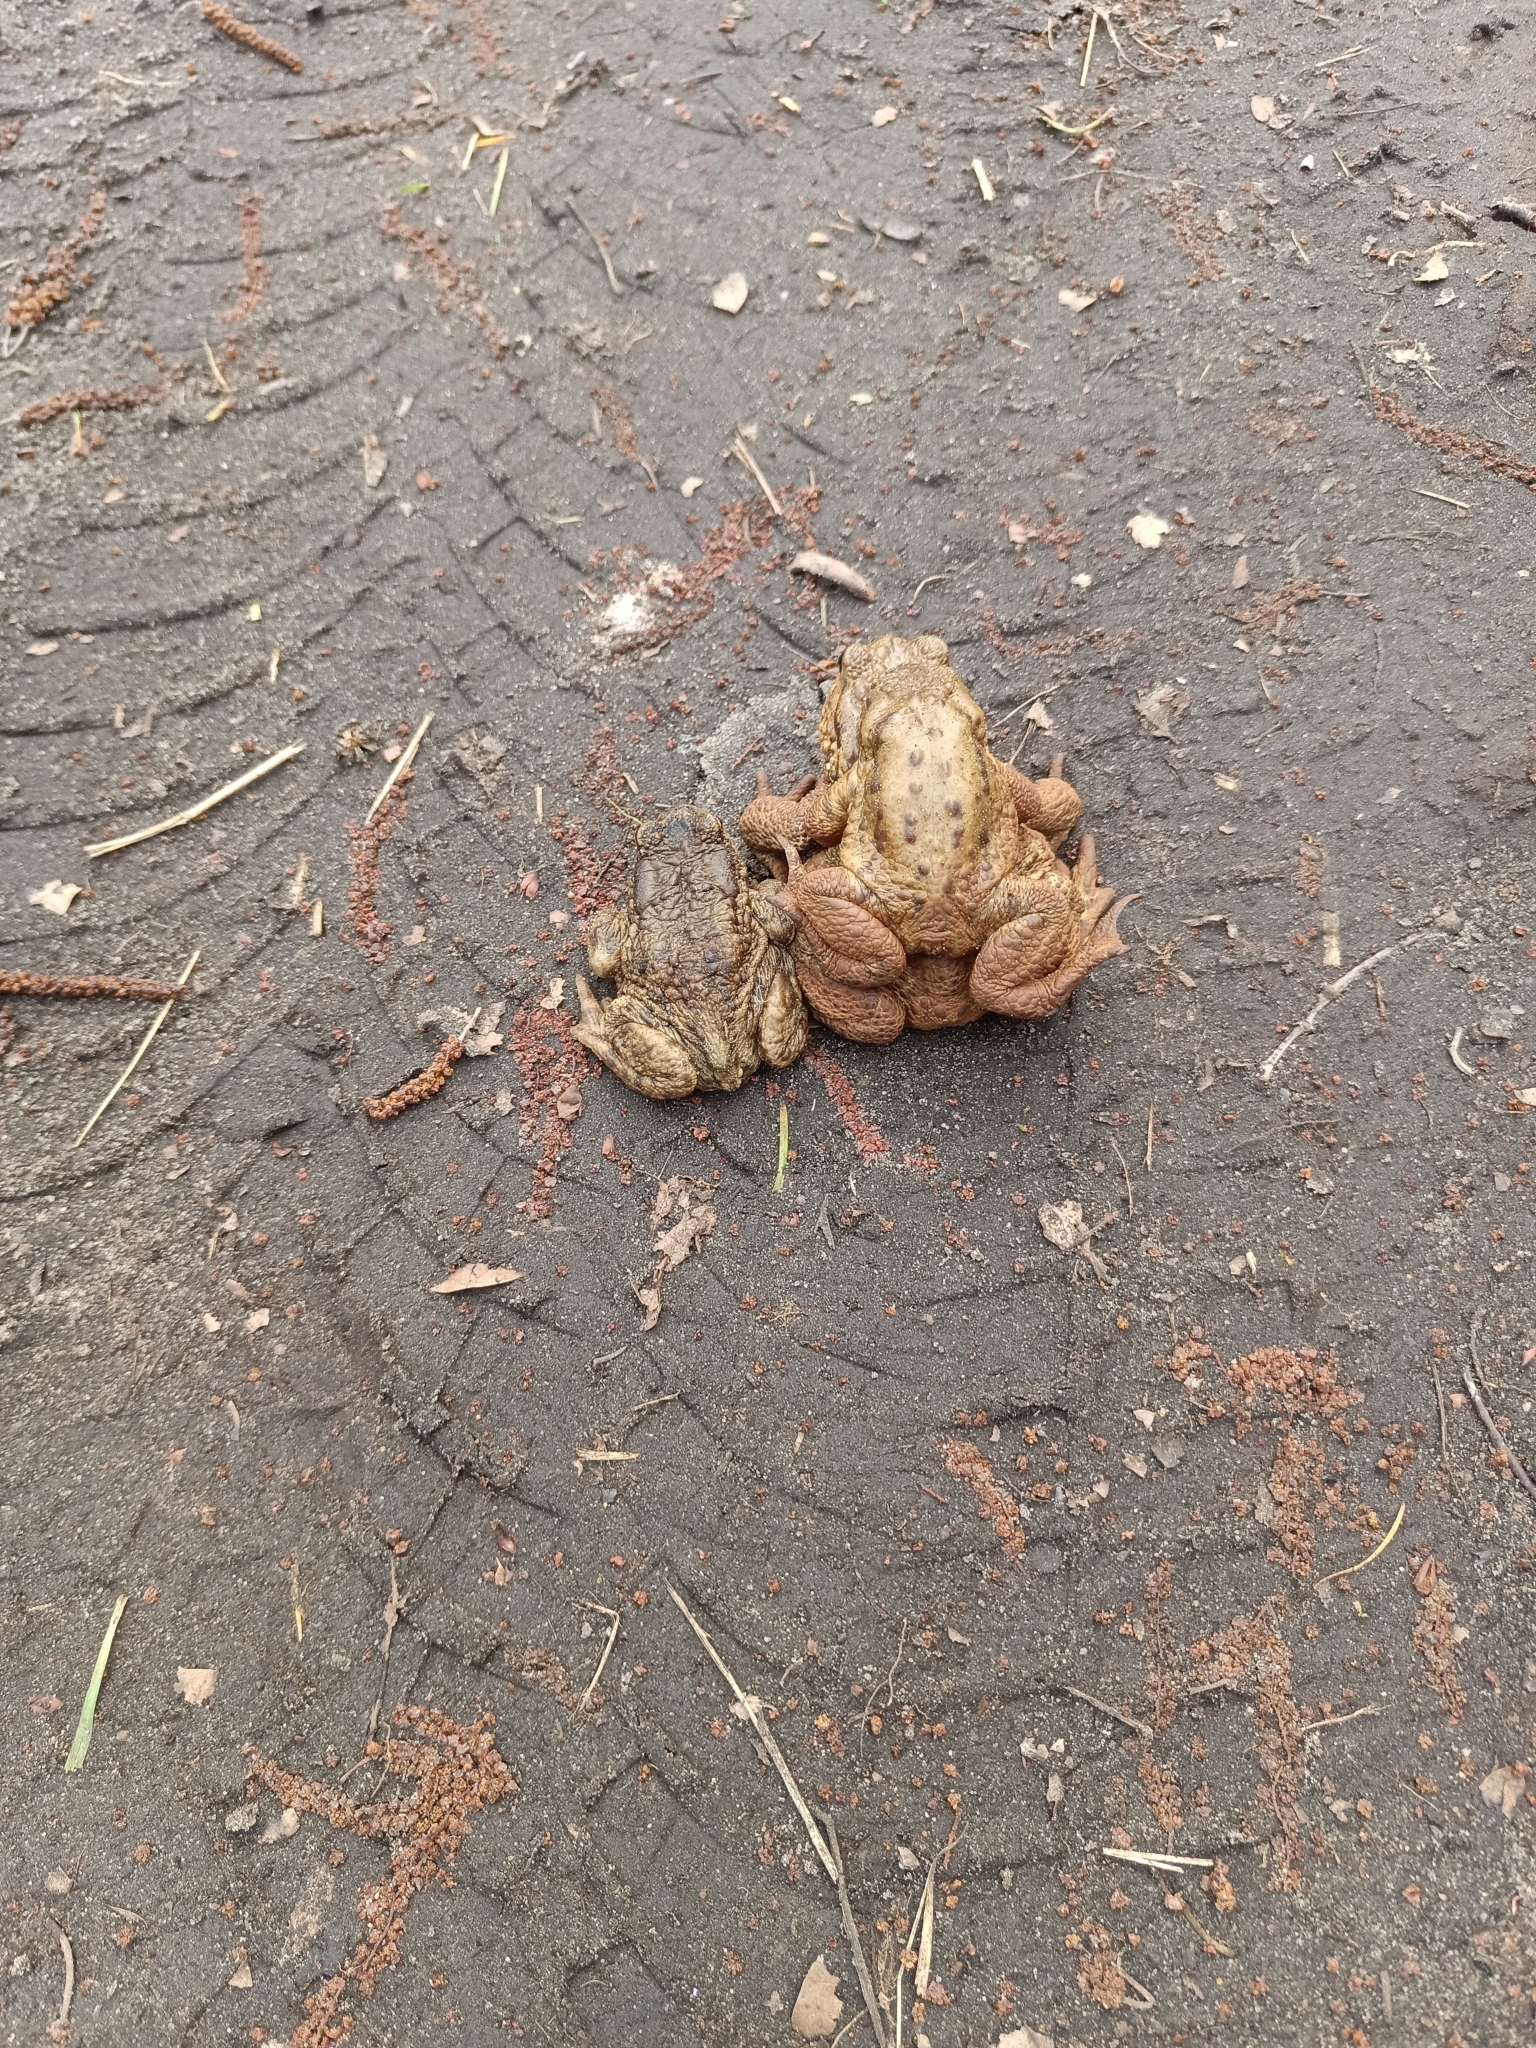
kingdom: Animalia
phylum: Chordata
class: Amphibia
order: Anura
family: Bufonidae
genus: Bufo
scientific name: Bufo bufo
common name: Common toad
